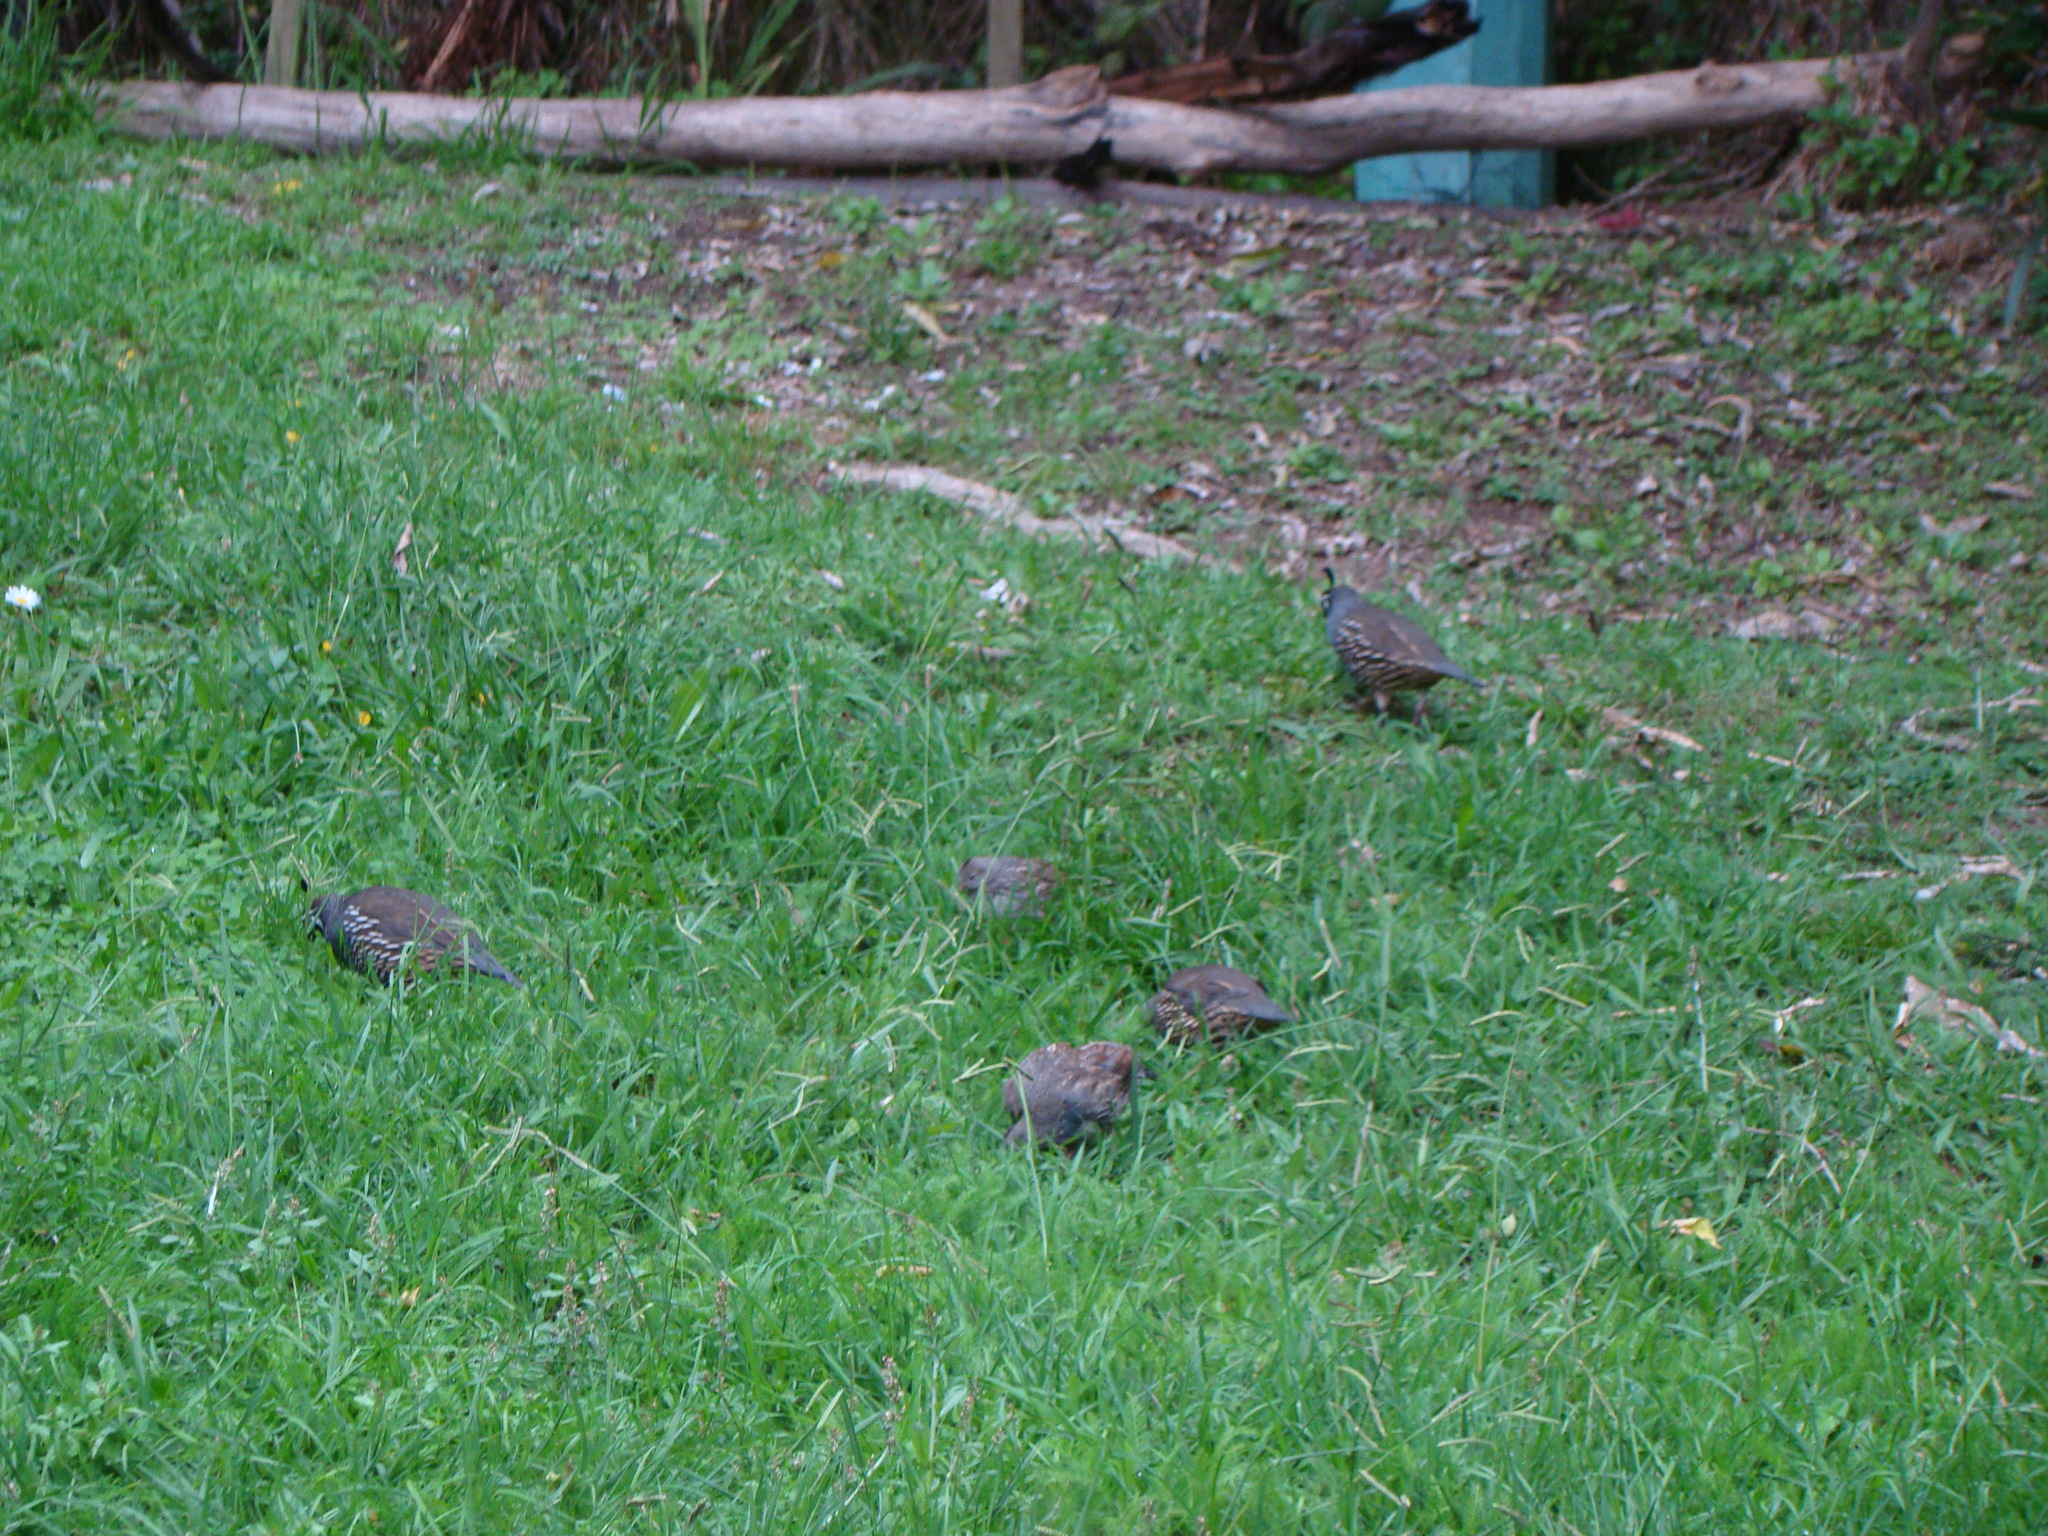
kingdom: Animalia
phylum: Chordata
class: Aves
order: Galliformes
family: Odontophoridae
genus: Callipepla
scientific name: Callipepla californica
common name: California quail
